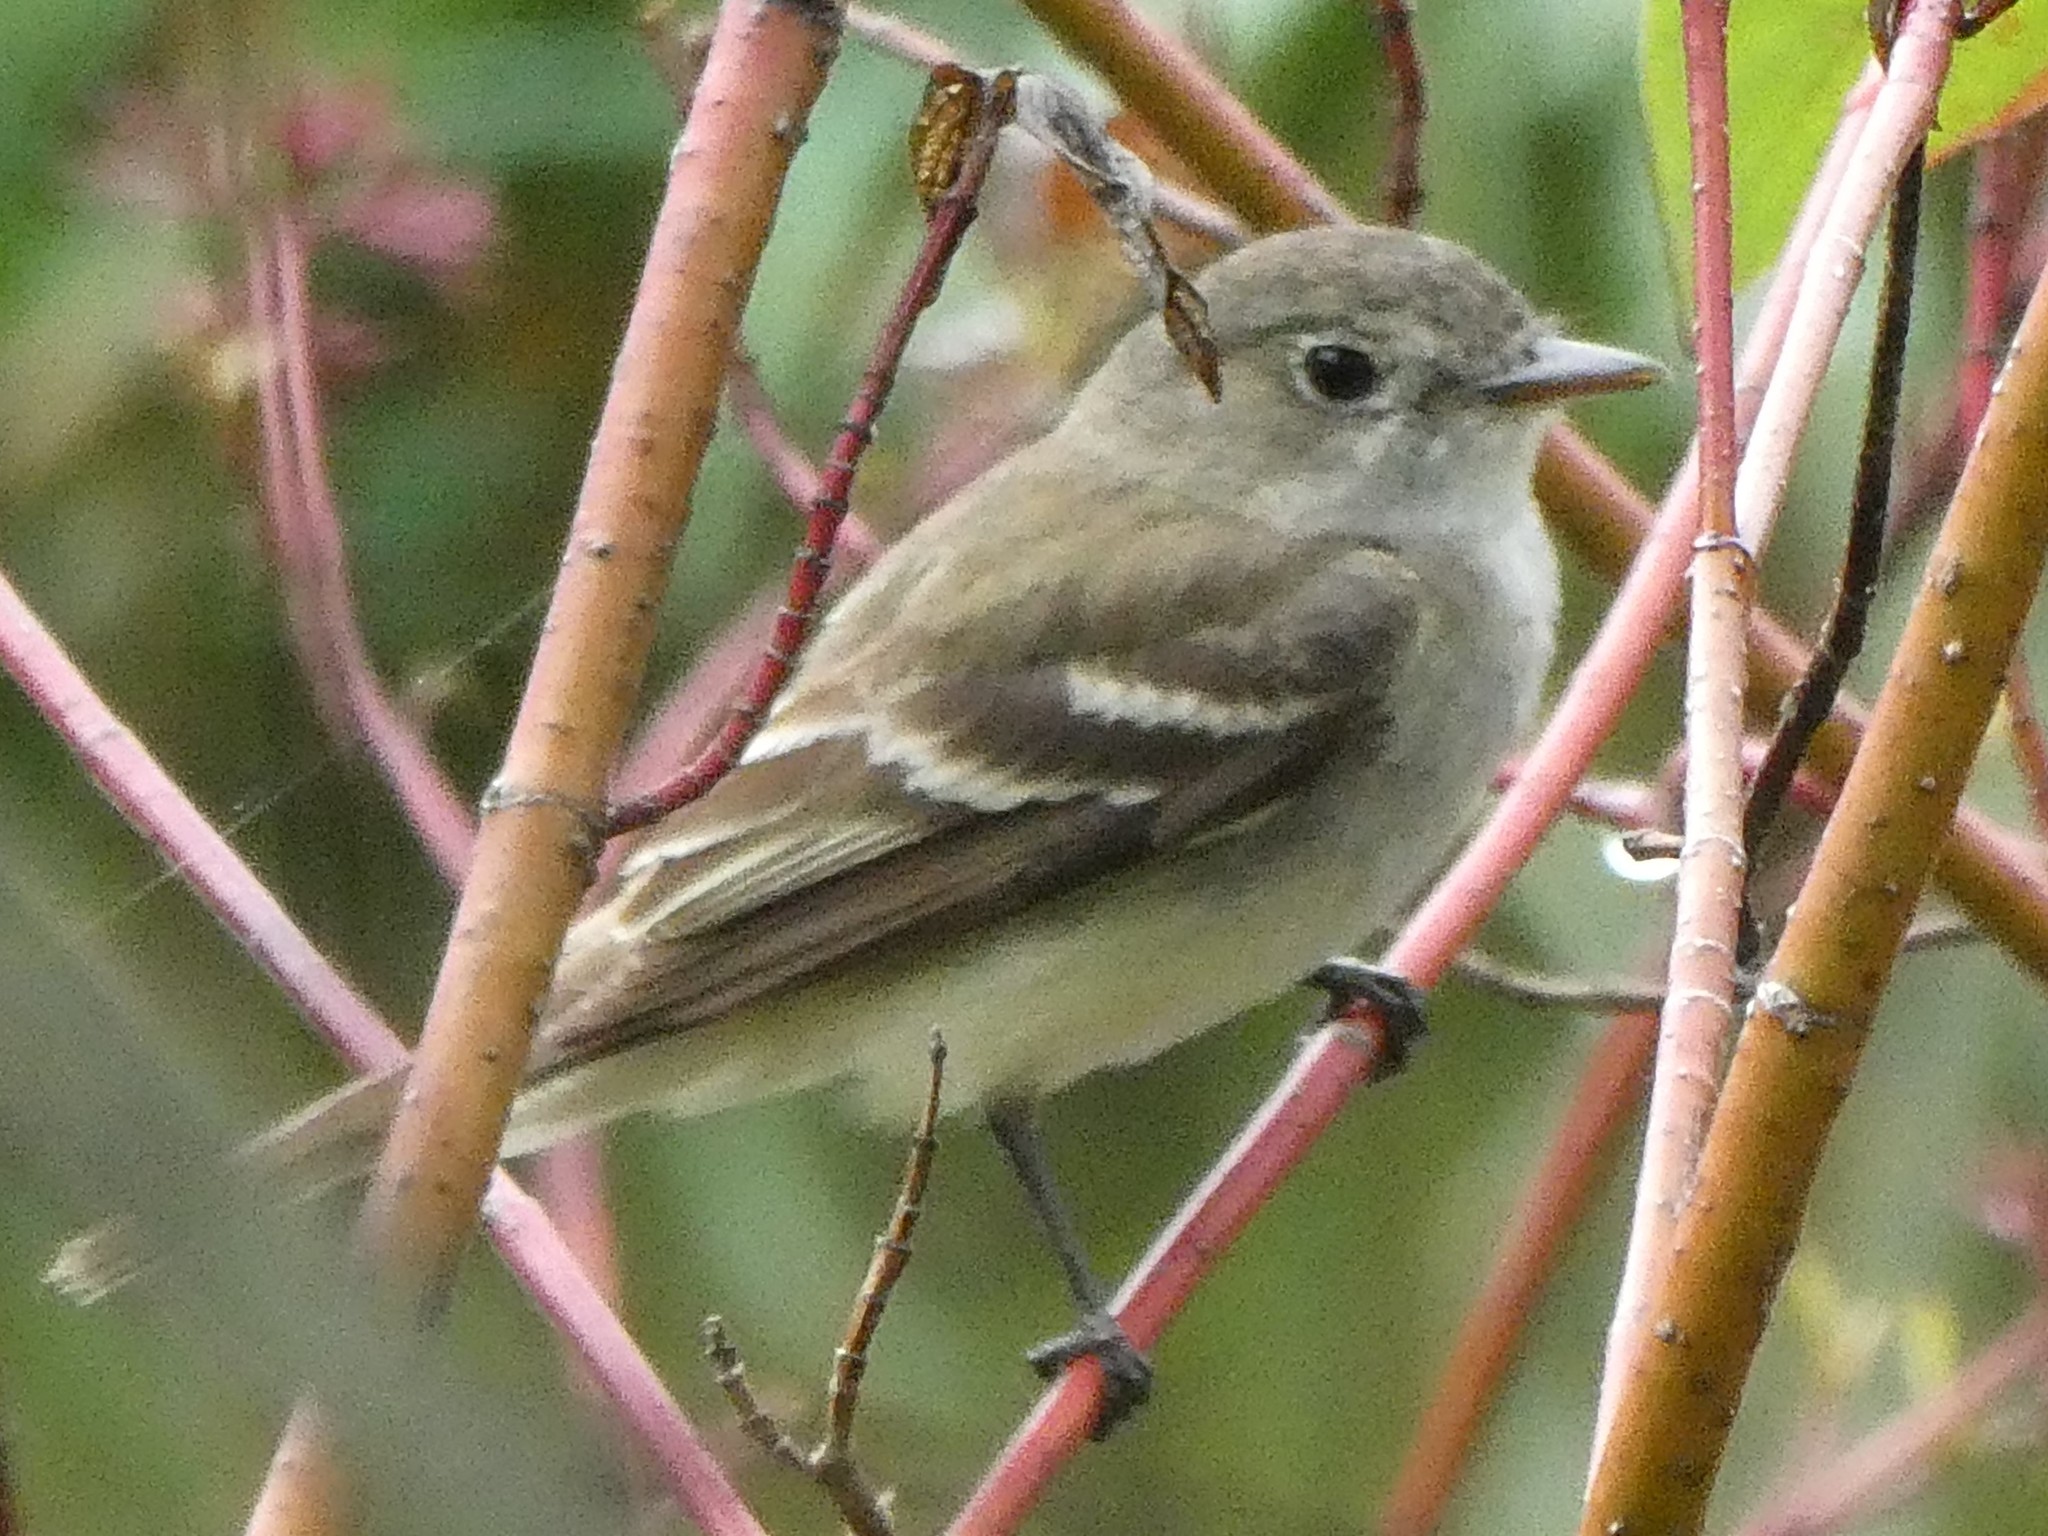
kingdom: Animalia
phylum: Chordata
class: Aves
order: Passeriformes
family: Tyrannidae
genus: Empidonax
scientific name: Empidonax minimus
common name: Least flycatcher
